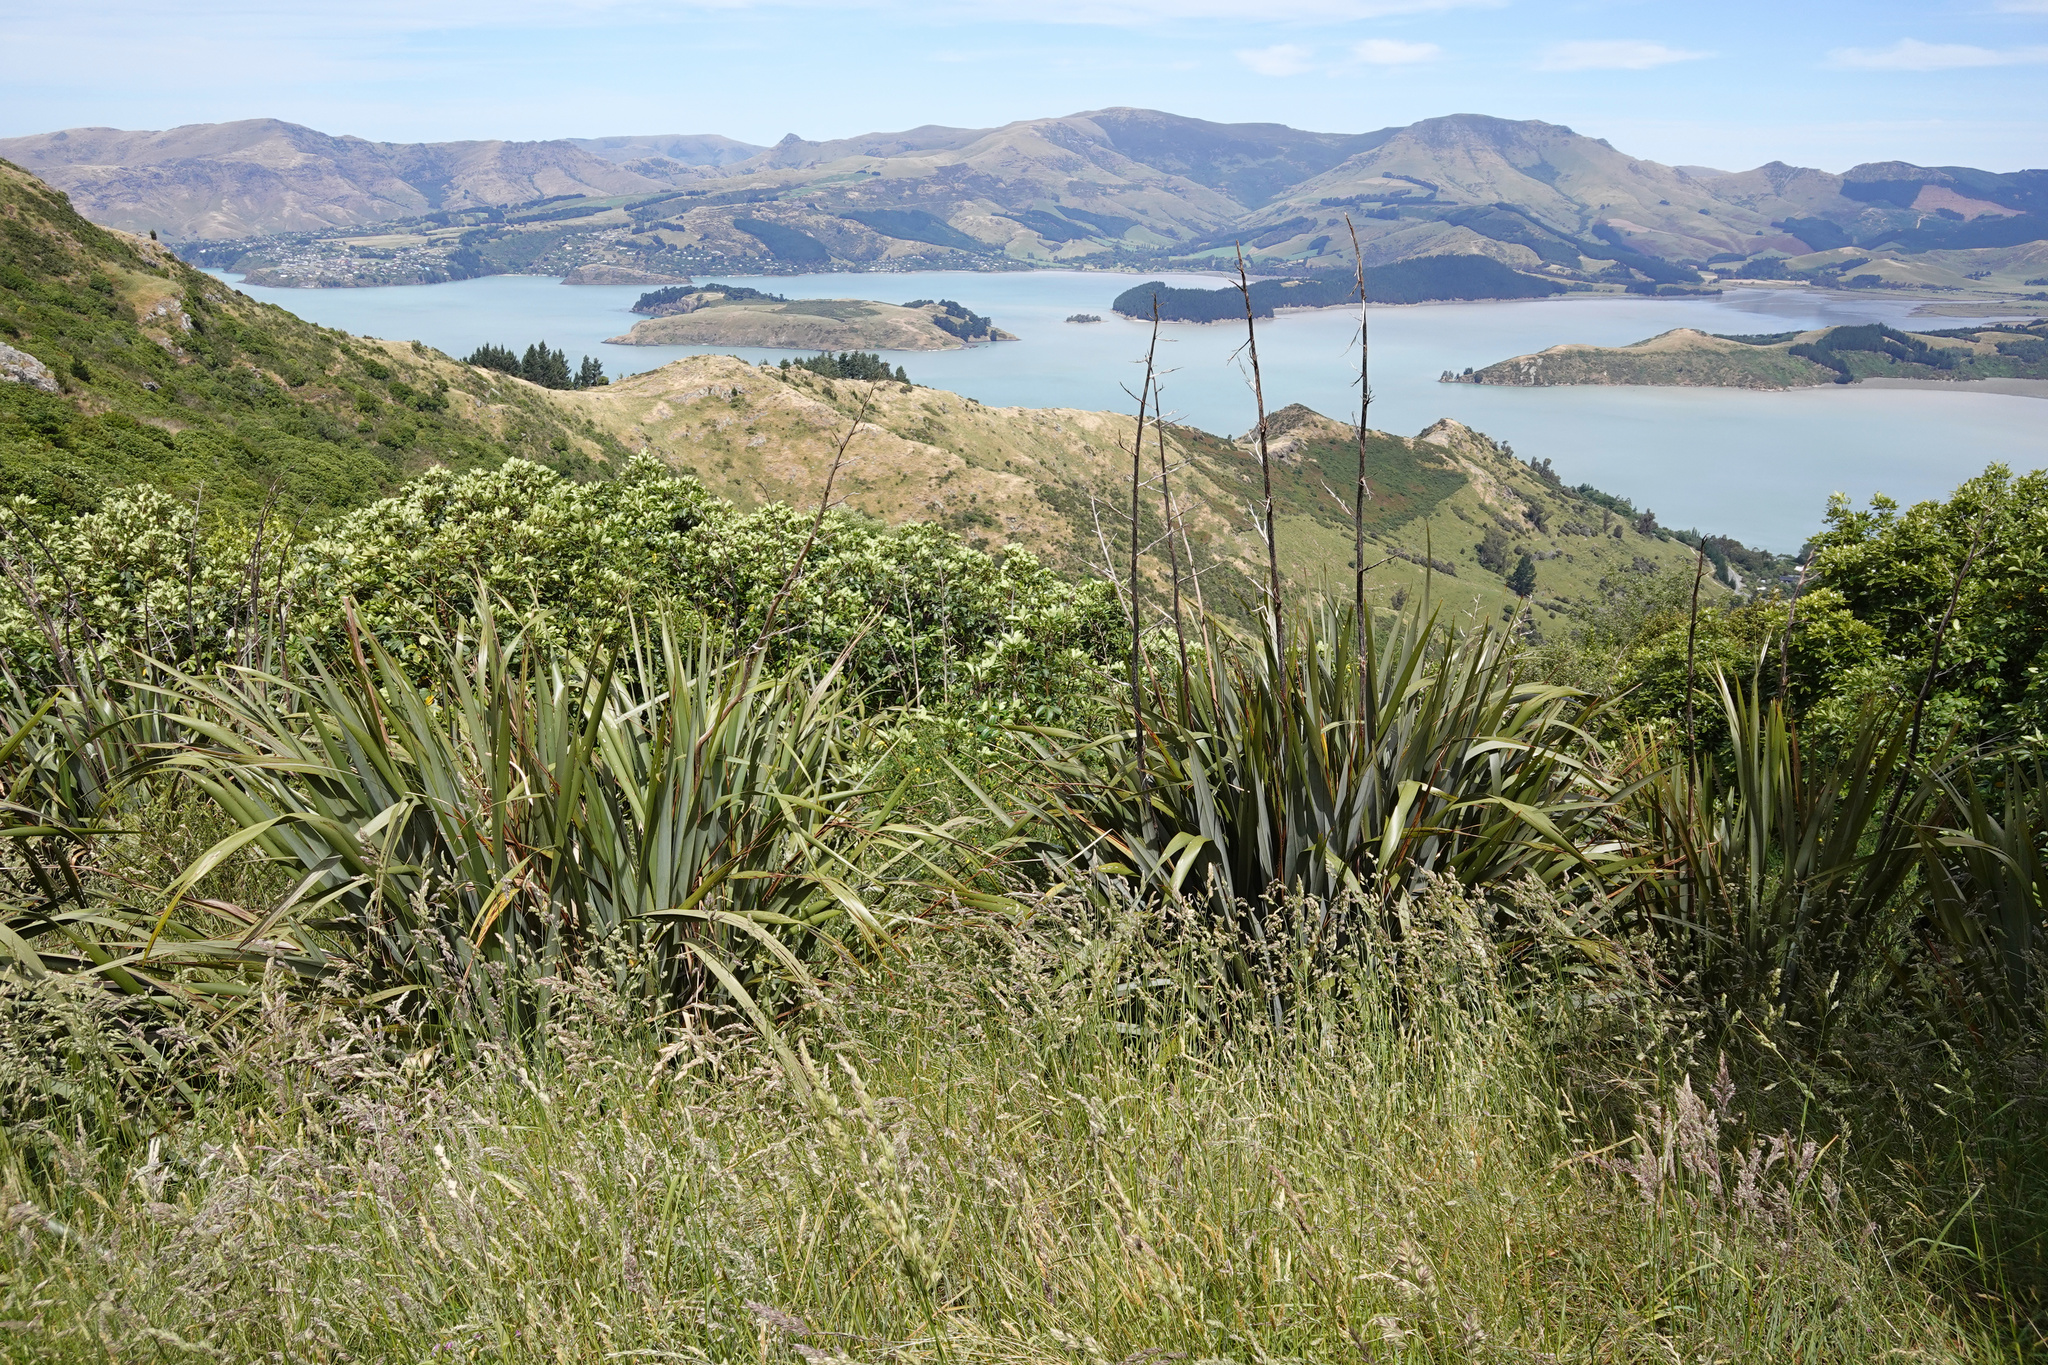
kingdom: Plantae
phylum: Tracheophyta
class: Liliopsida
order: Asparagales
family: Asphodelaceae
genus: Phormium
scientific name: Phormium tenax
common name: New zealand flax
